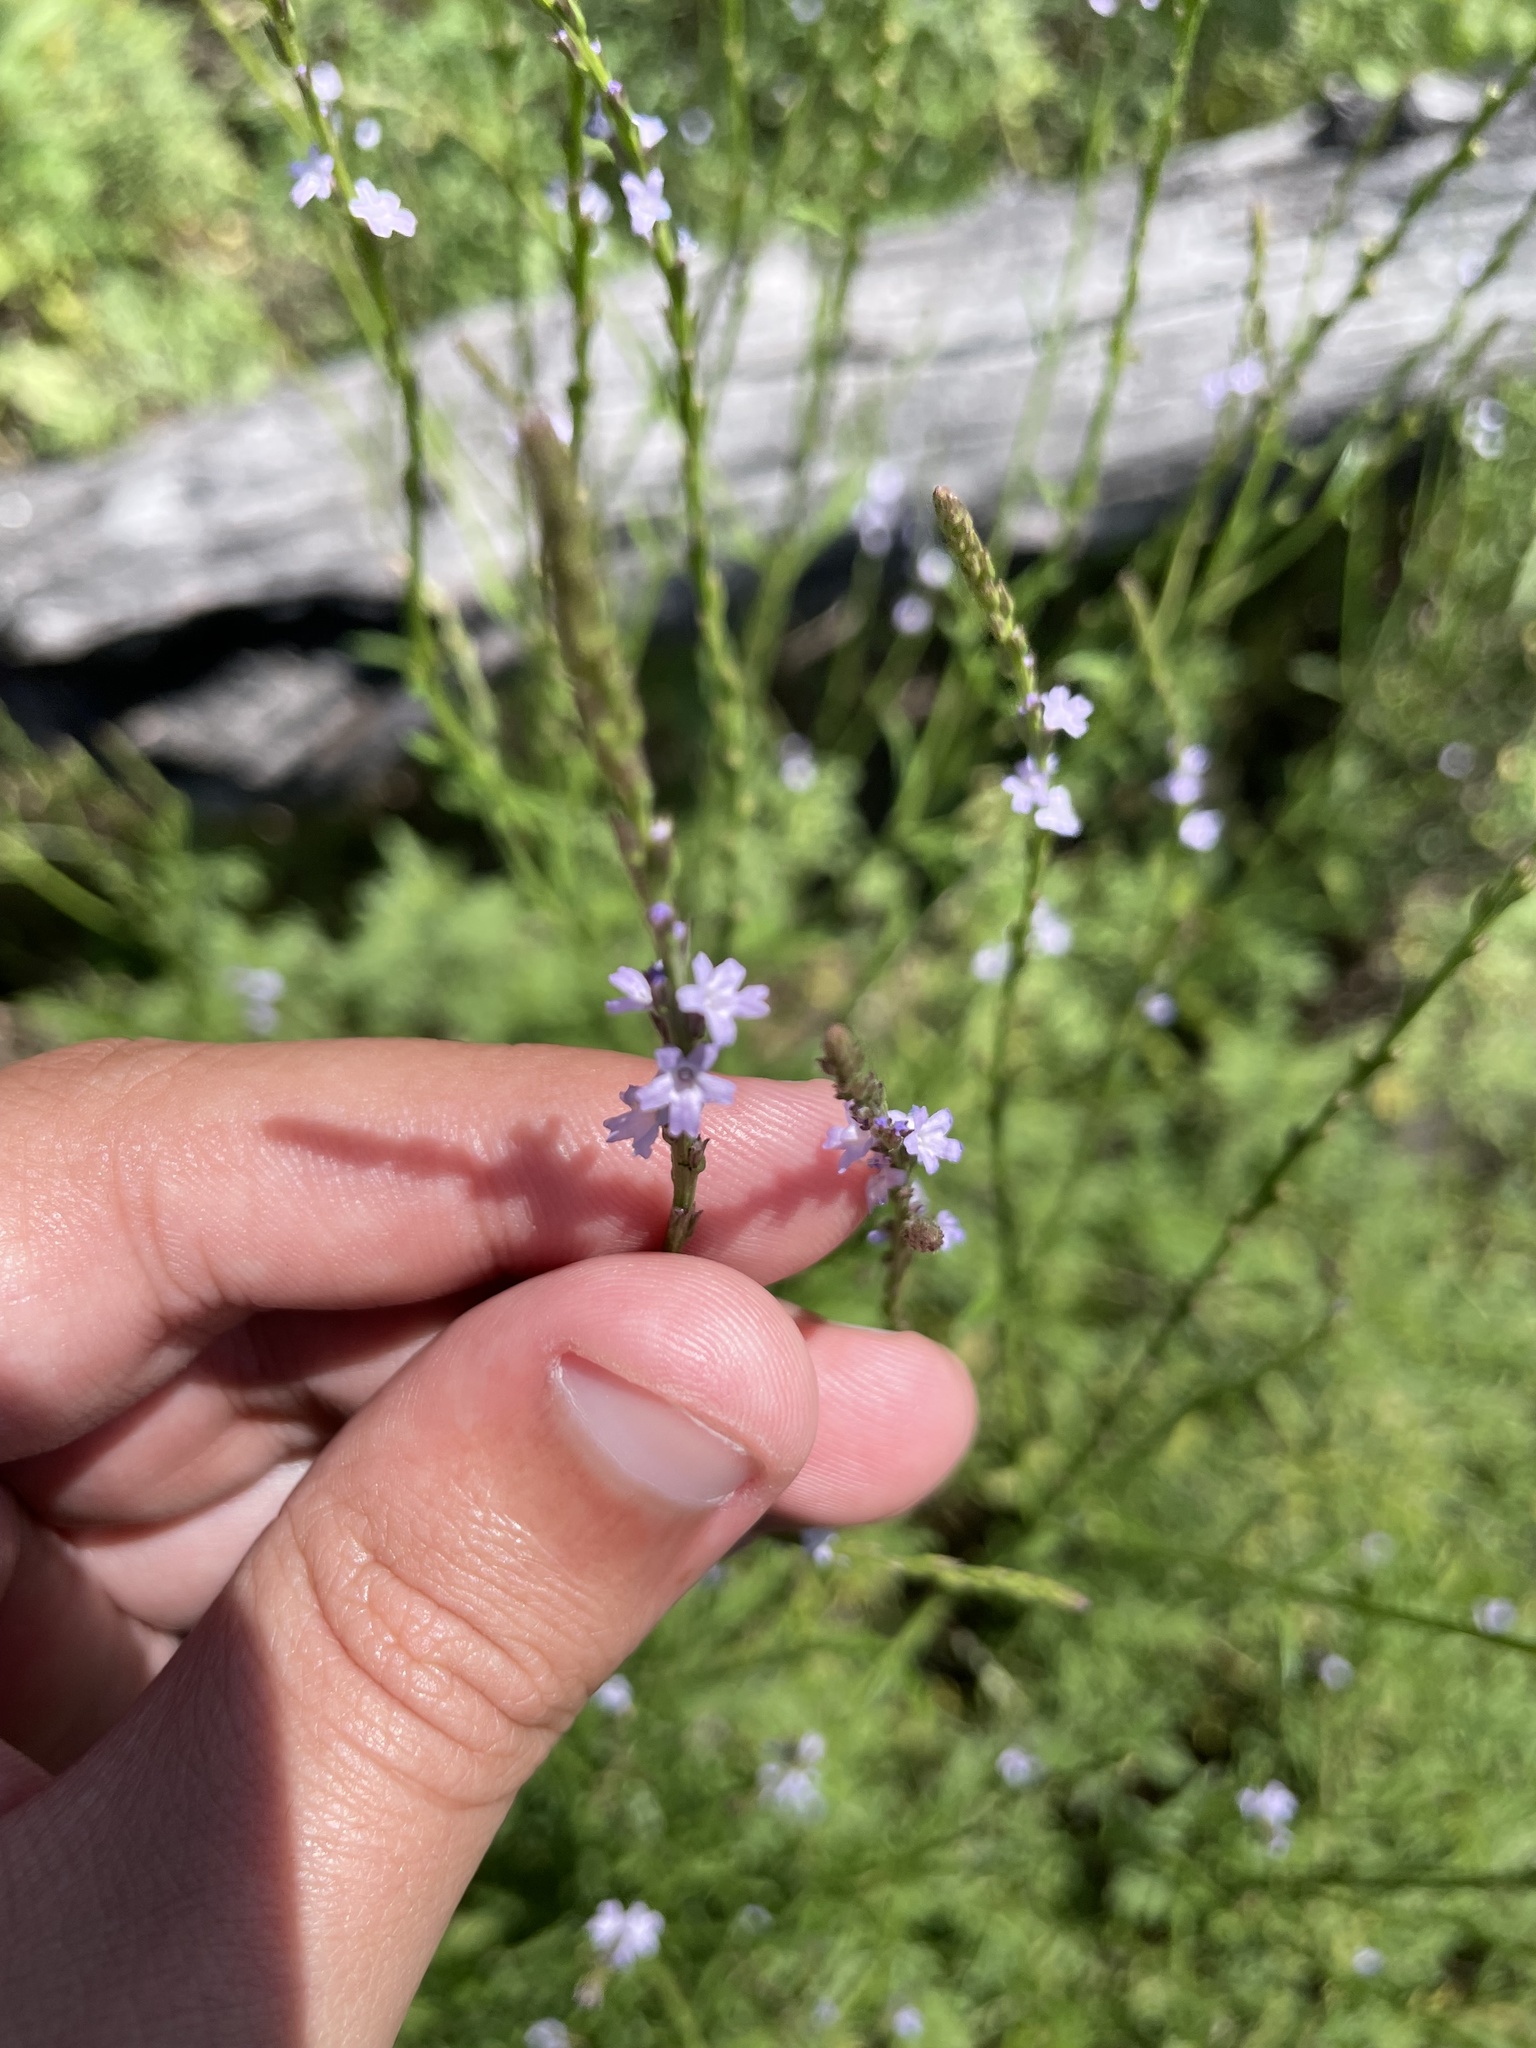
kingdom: Plantae
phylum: Tracheophyta
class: Magnoliopsida
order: Lamiales
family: Verbenaceae
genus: Verbena
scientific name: Verbena halei
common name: Texas vervain
